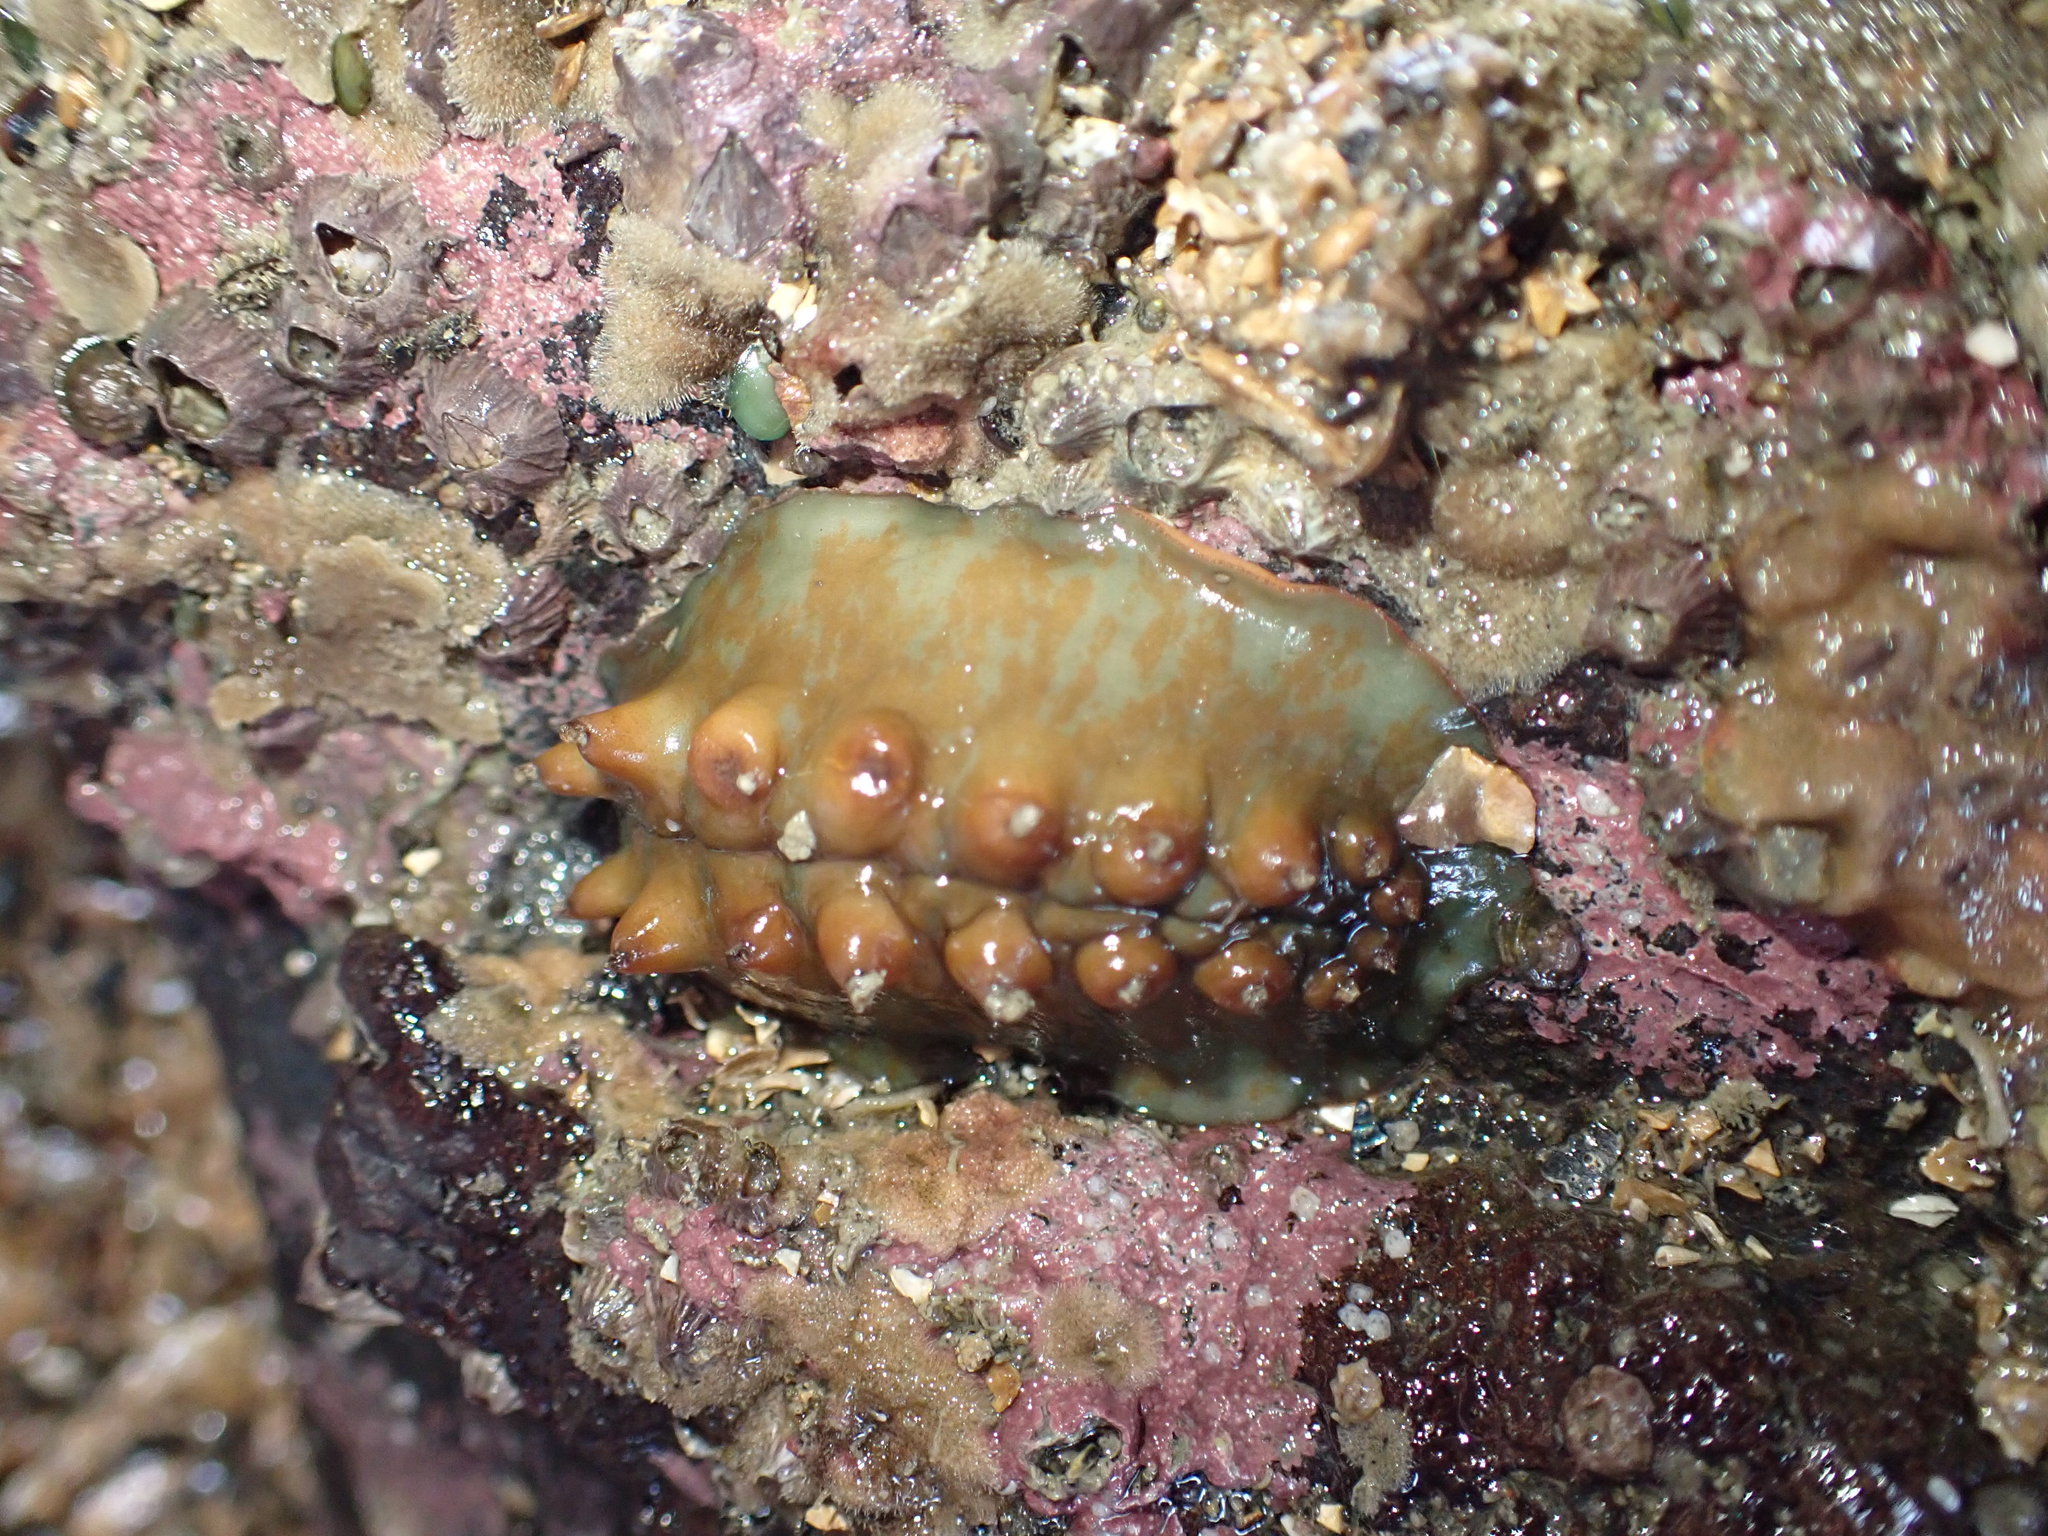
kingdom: Animalia
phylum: Mollusca
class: Polyplacophora
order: Chitonida
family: Acanthochitonidae
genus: Cryptoconchus
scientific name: Cryptoconchus porosus
